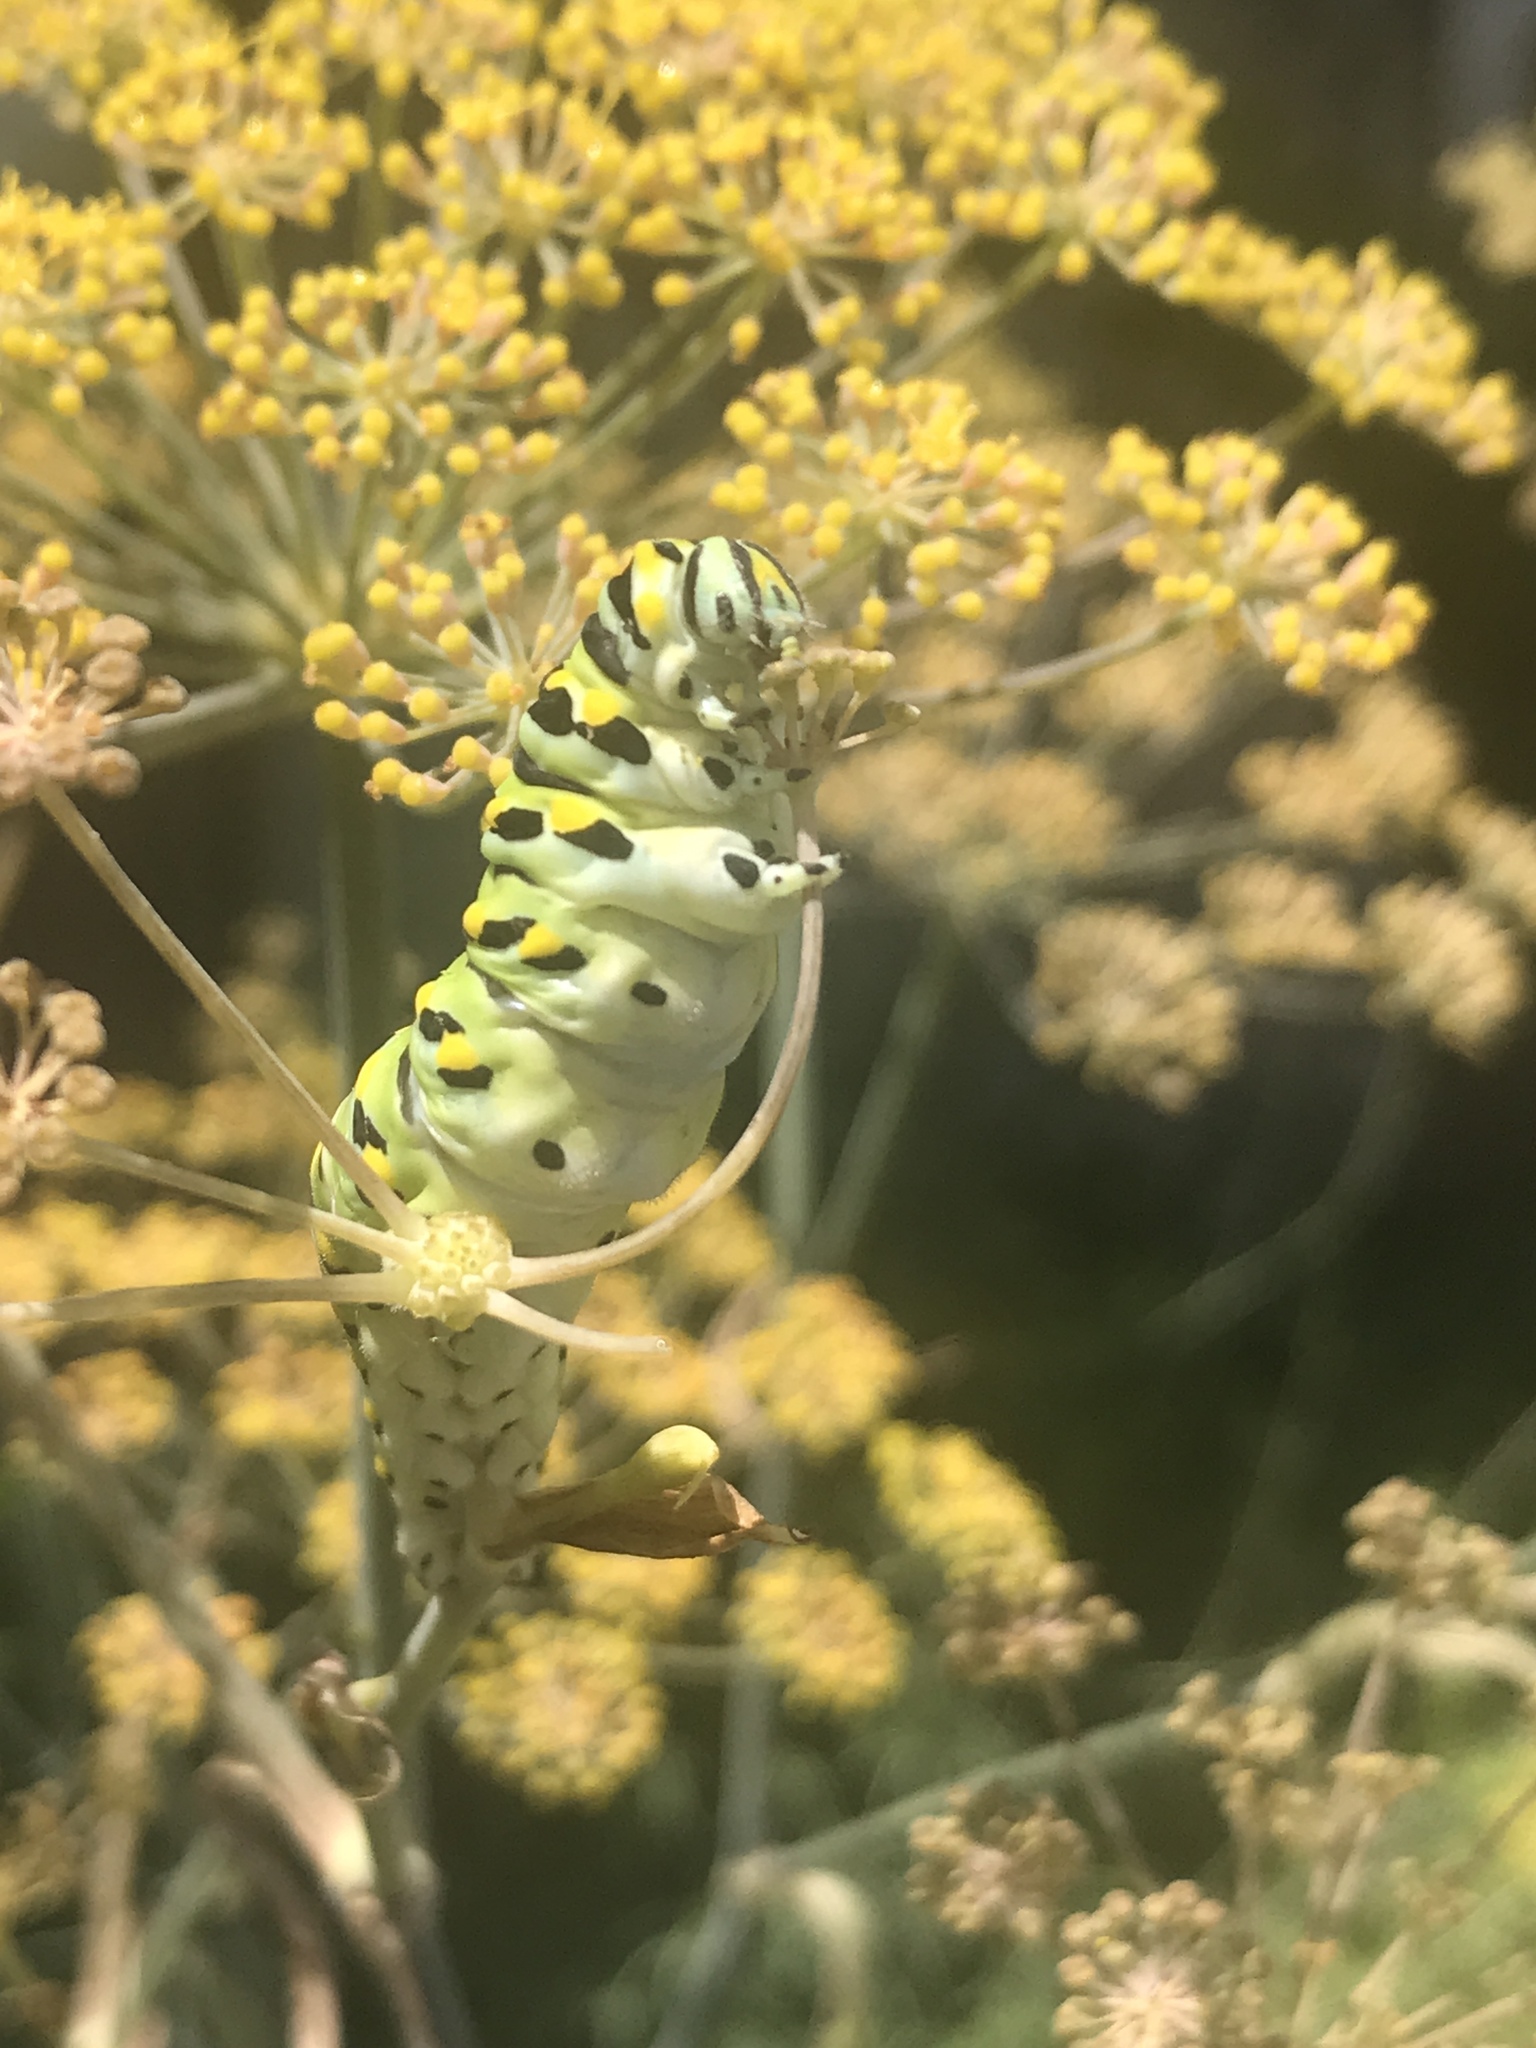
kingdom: Animalia
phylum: Arthropoda
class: Insecta
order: Lepidoptera
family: Papilionidae
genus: Papilio
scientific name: Papilio polyxenes
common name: Black swallowtail
